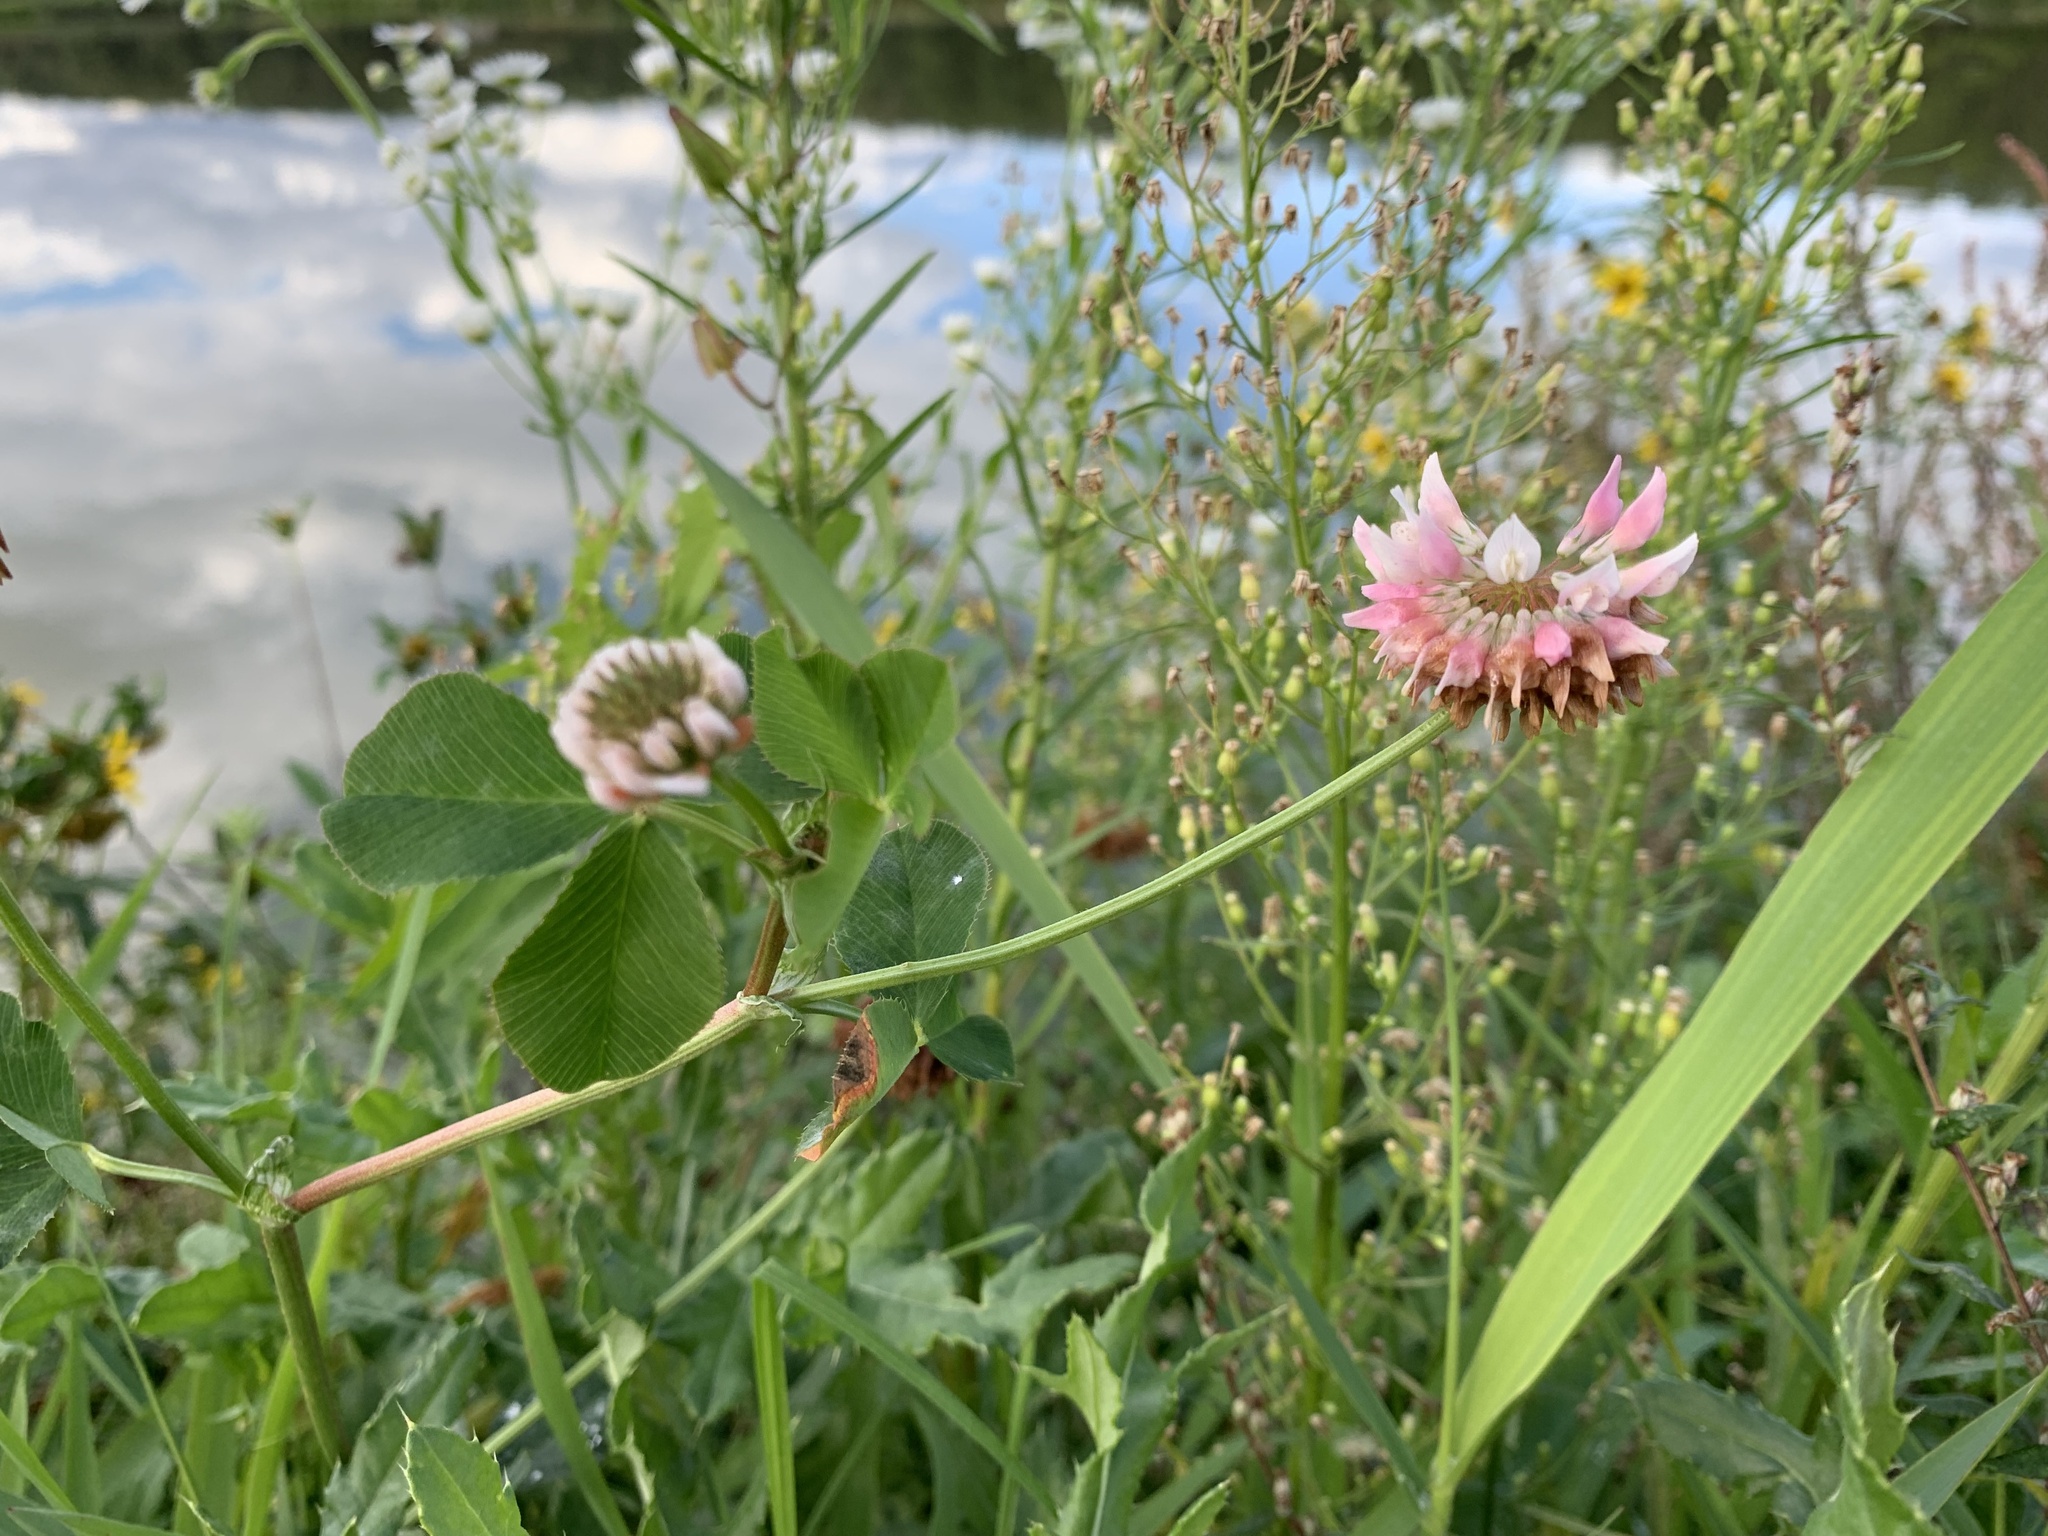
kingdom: Plantae
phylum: Tracheophyta
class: Magnoliopsida
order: Fabales
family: Fabaceae
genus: Trifolium
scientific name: Trifolium hybridum
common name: Alsike clover
